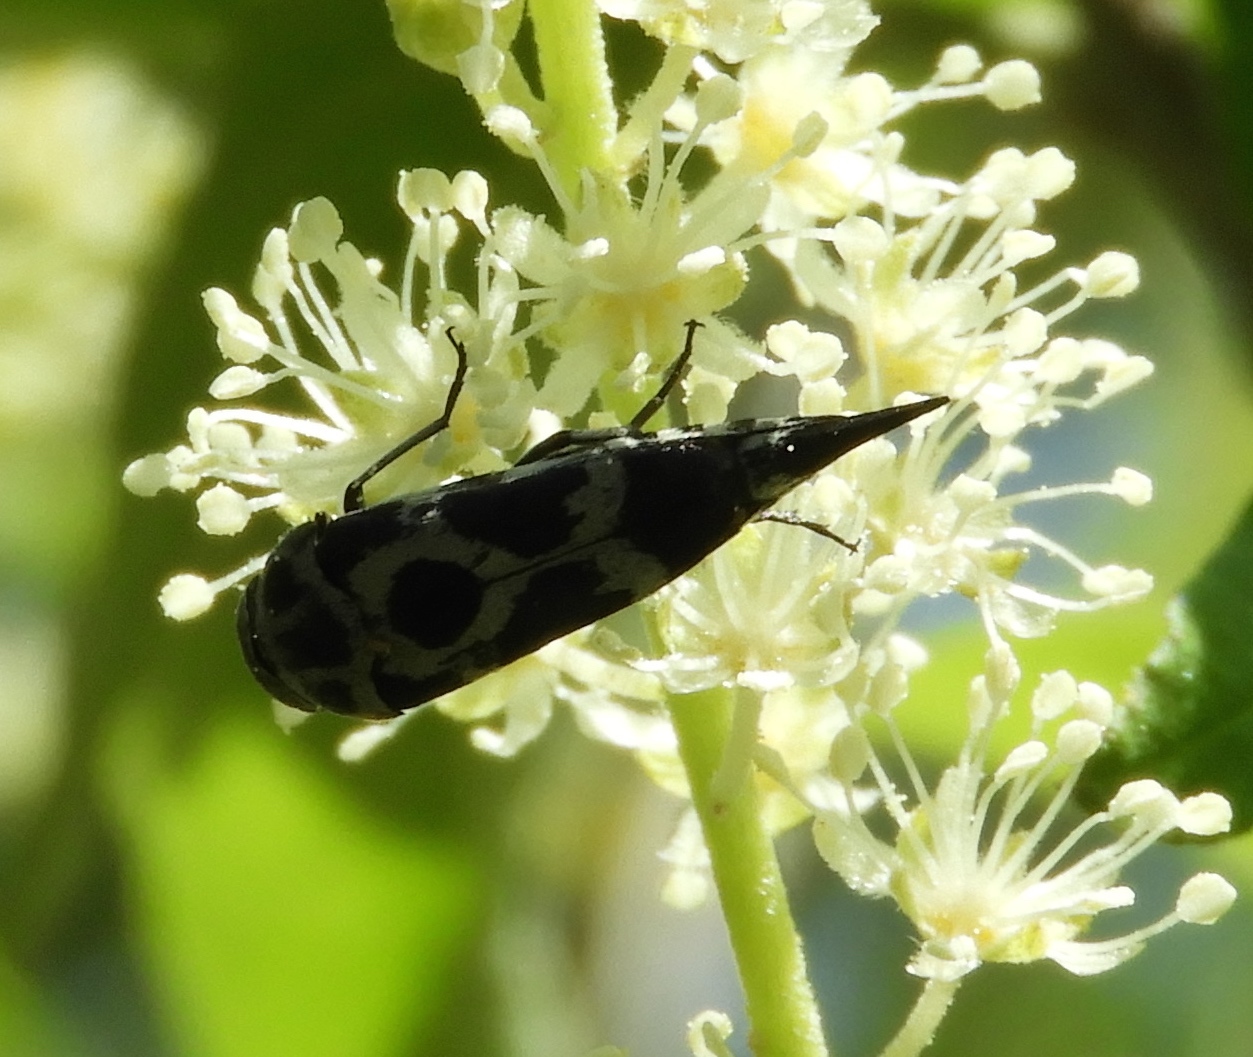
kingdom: Animalia
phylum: Arthropoda
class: Insecta
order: Coleoptera
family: Mordellidae
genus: Mordella
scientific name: Mordella
